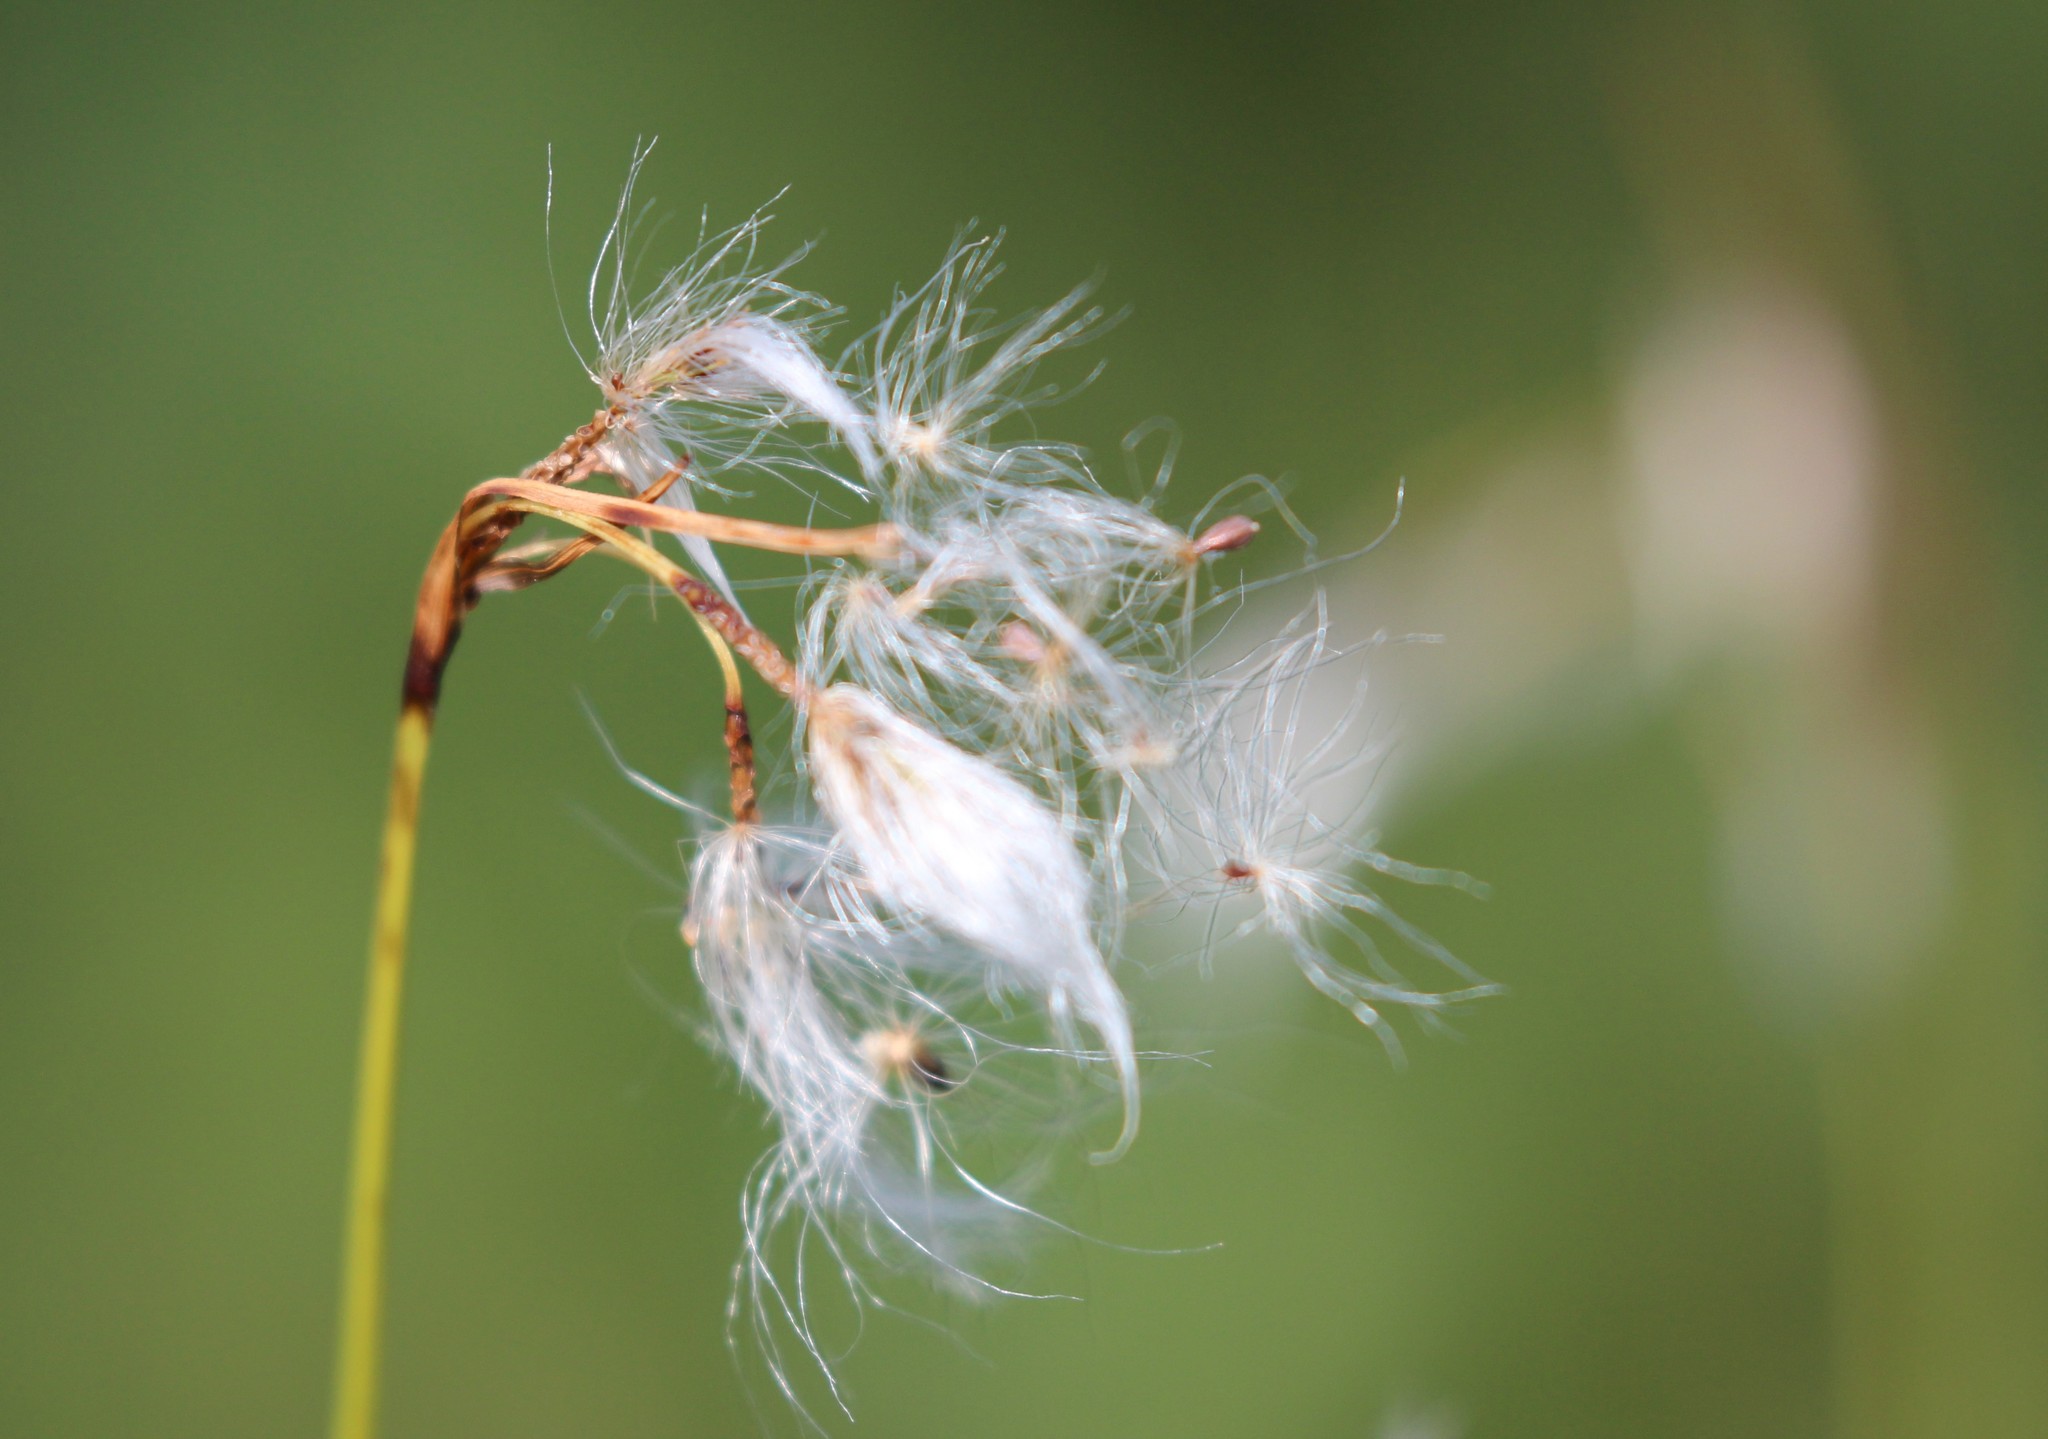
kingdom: Plantae
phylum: Tracheophyta
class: Liliopsida
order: Poales
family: Cyperaceae
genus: Eriophorum
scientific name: Eriophorum angustifolium
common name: Common cottongrass
